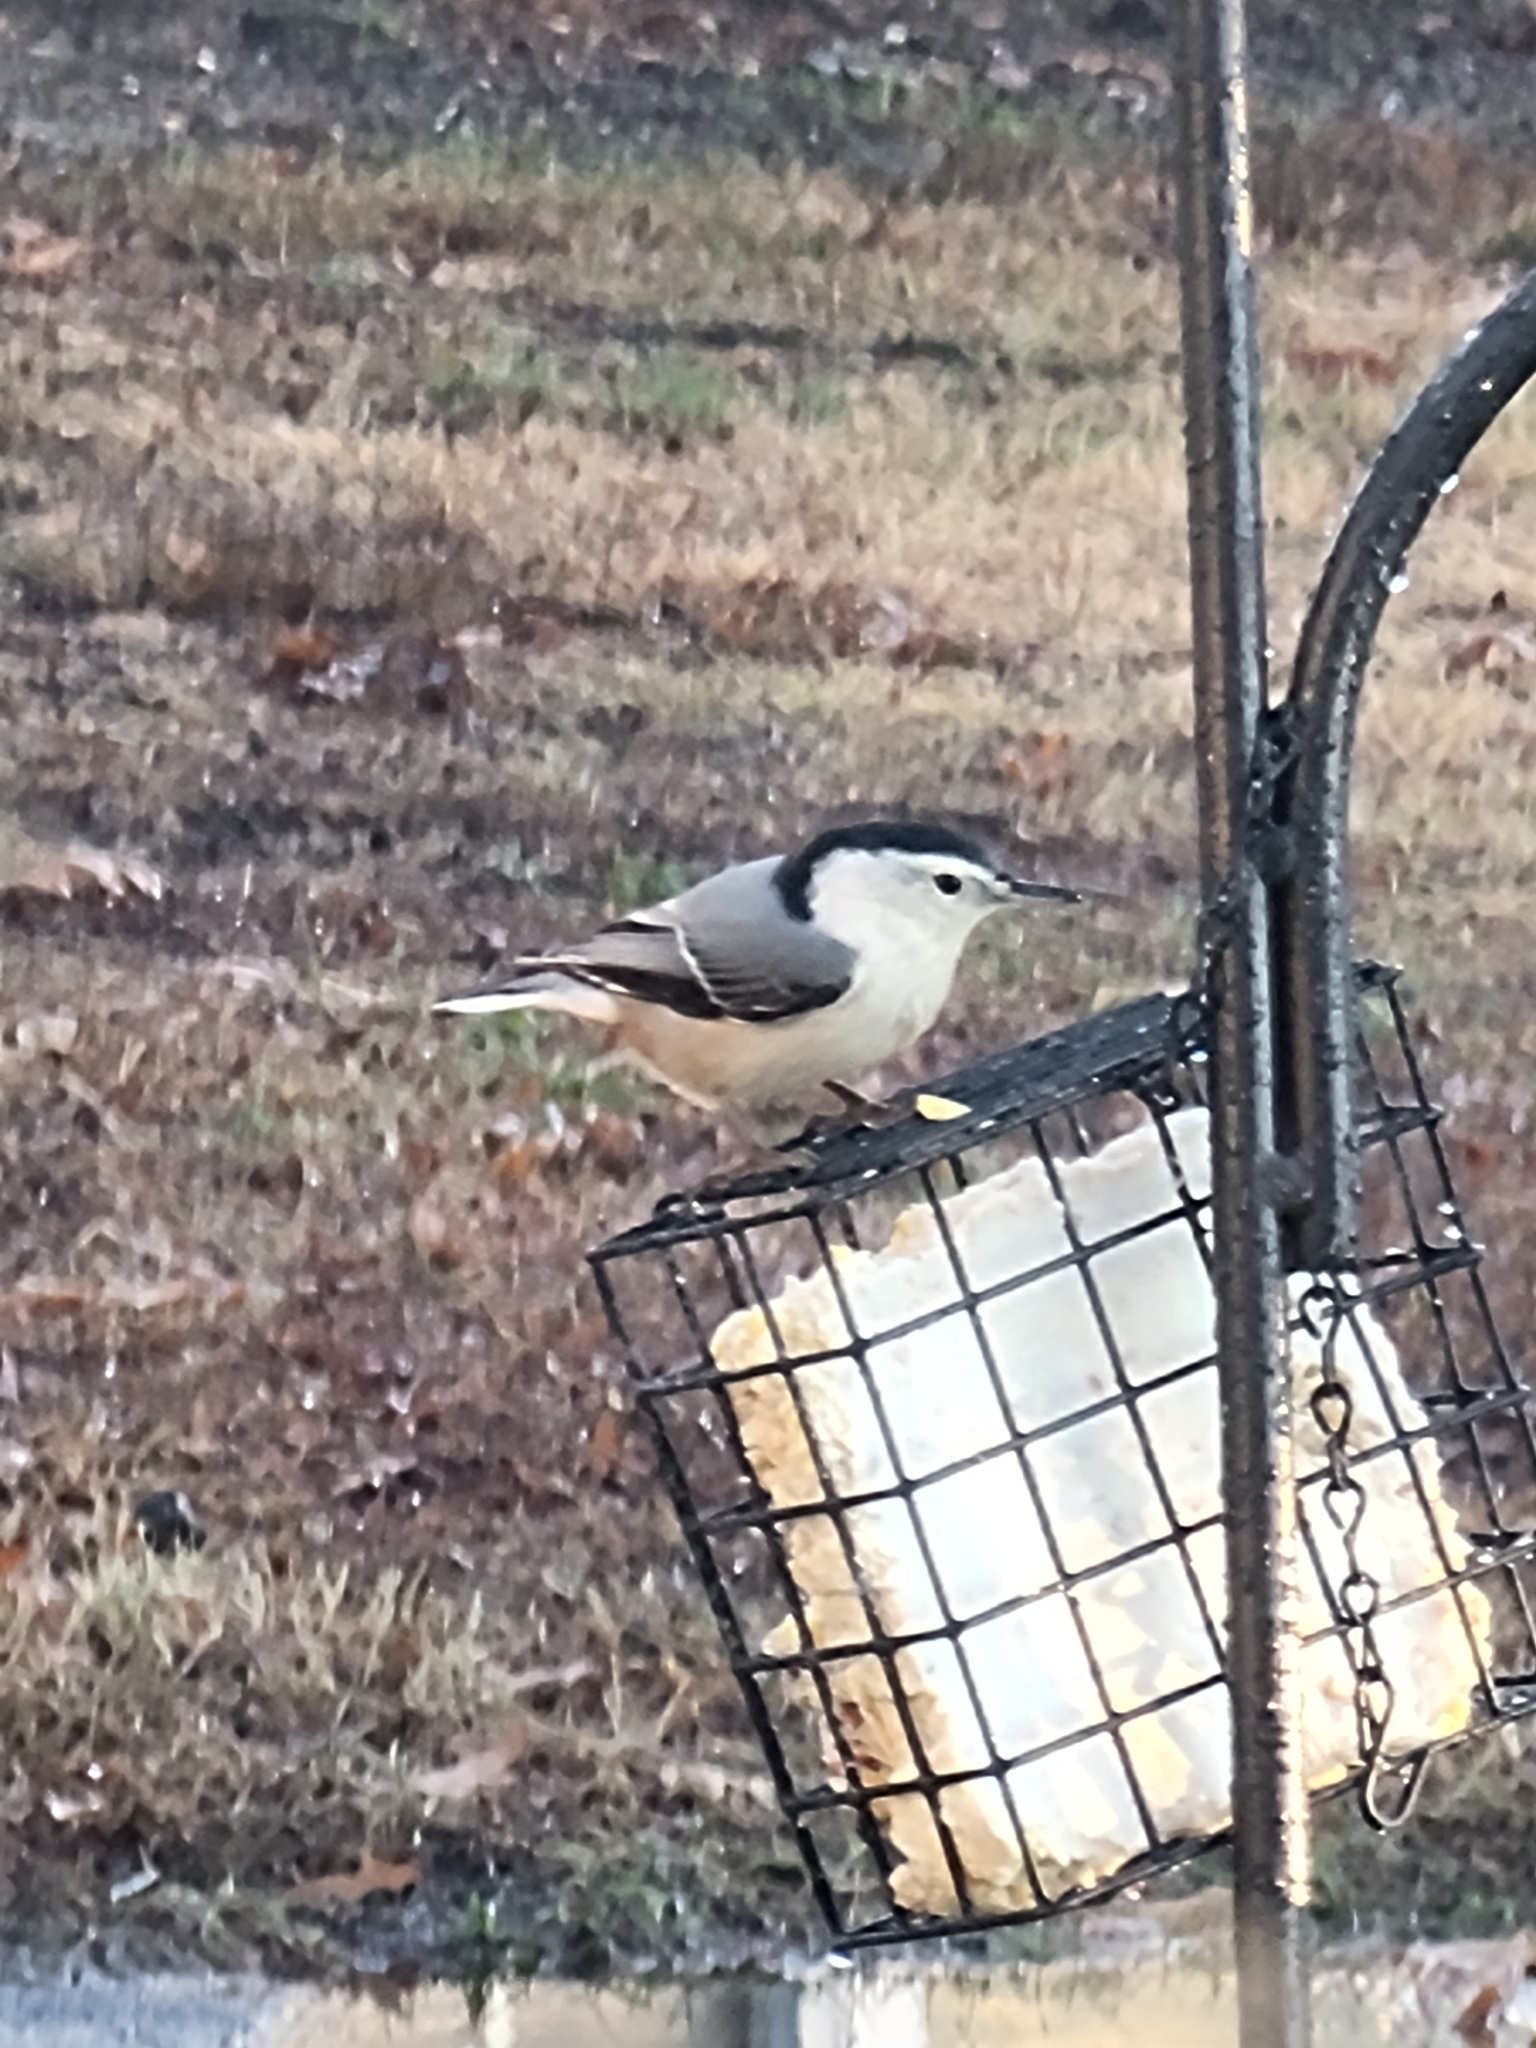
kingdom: Animalia
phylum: Chordata
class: Aves
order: Passeriformes
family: Sittidae
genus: Sitta
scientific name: Sitta carolinensis
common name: White-breasted nuthatch
